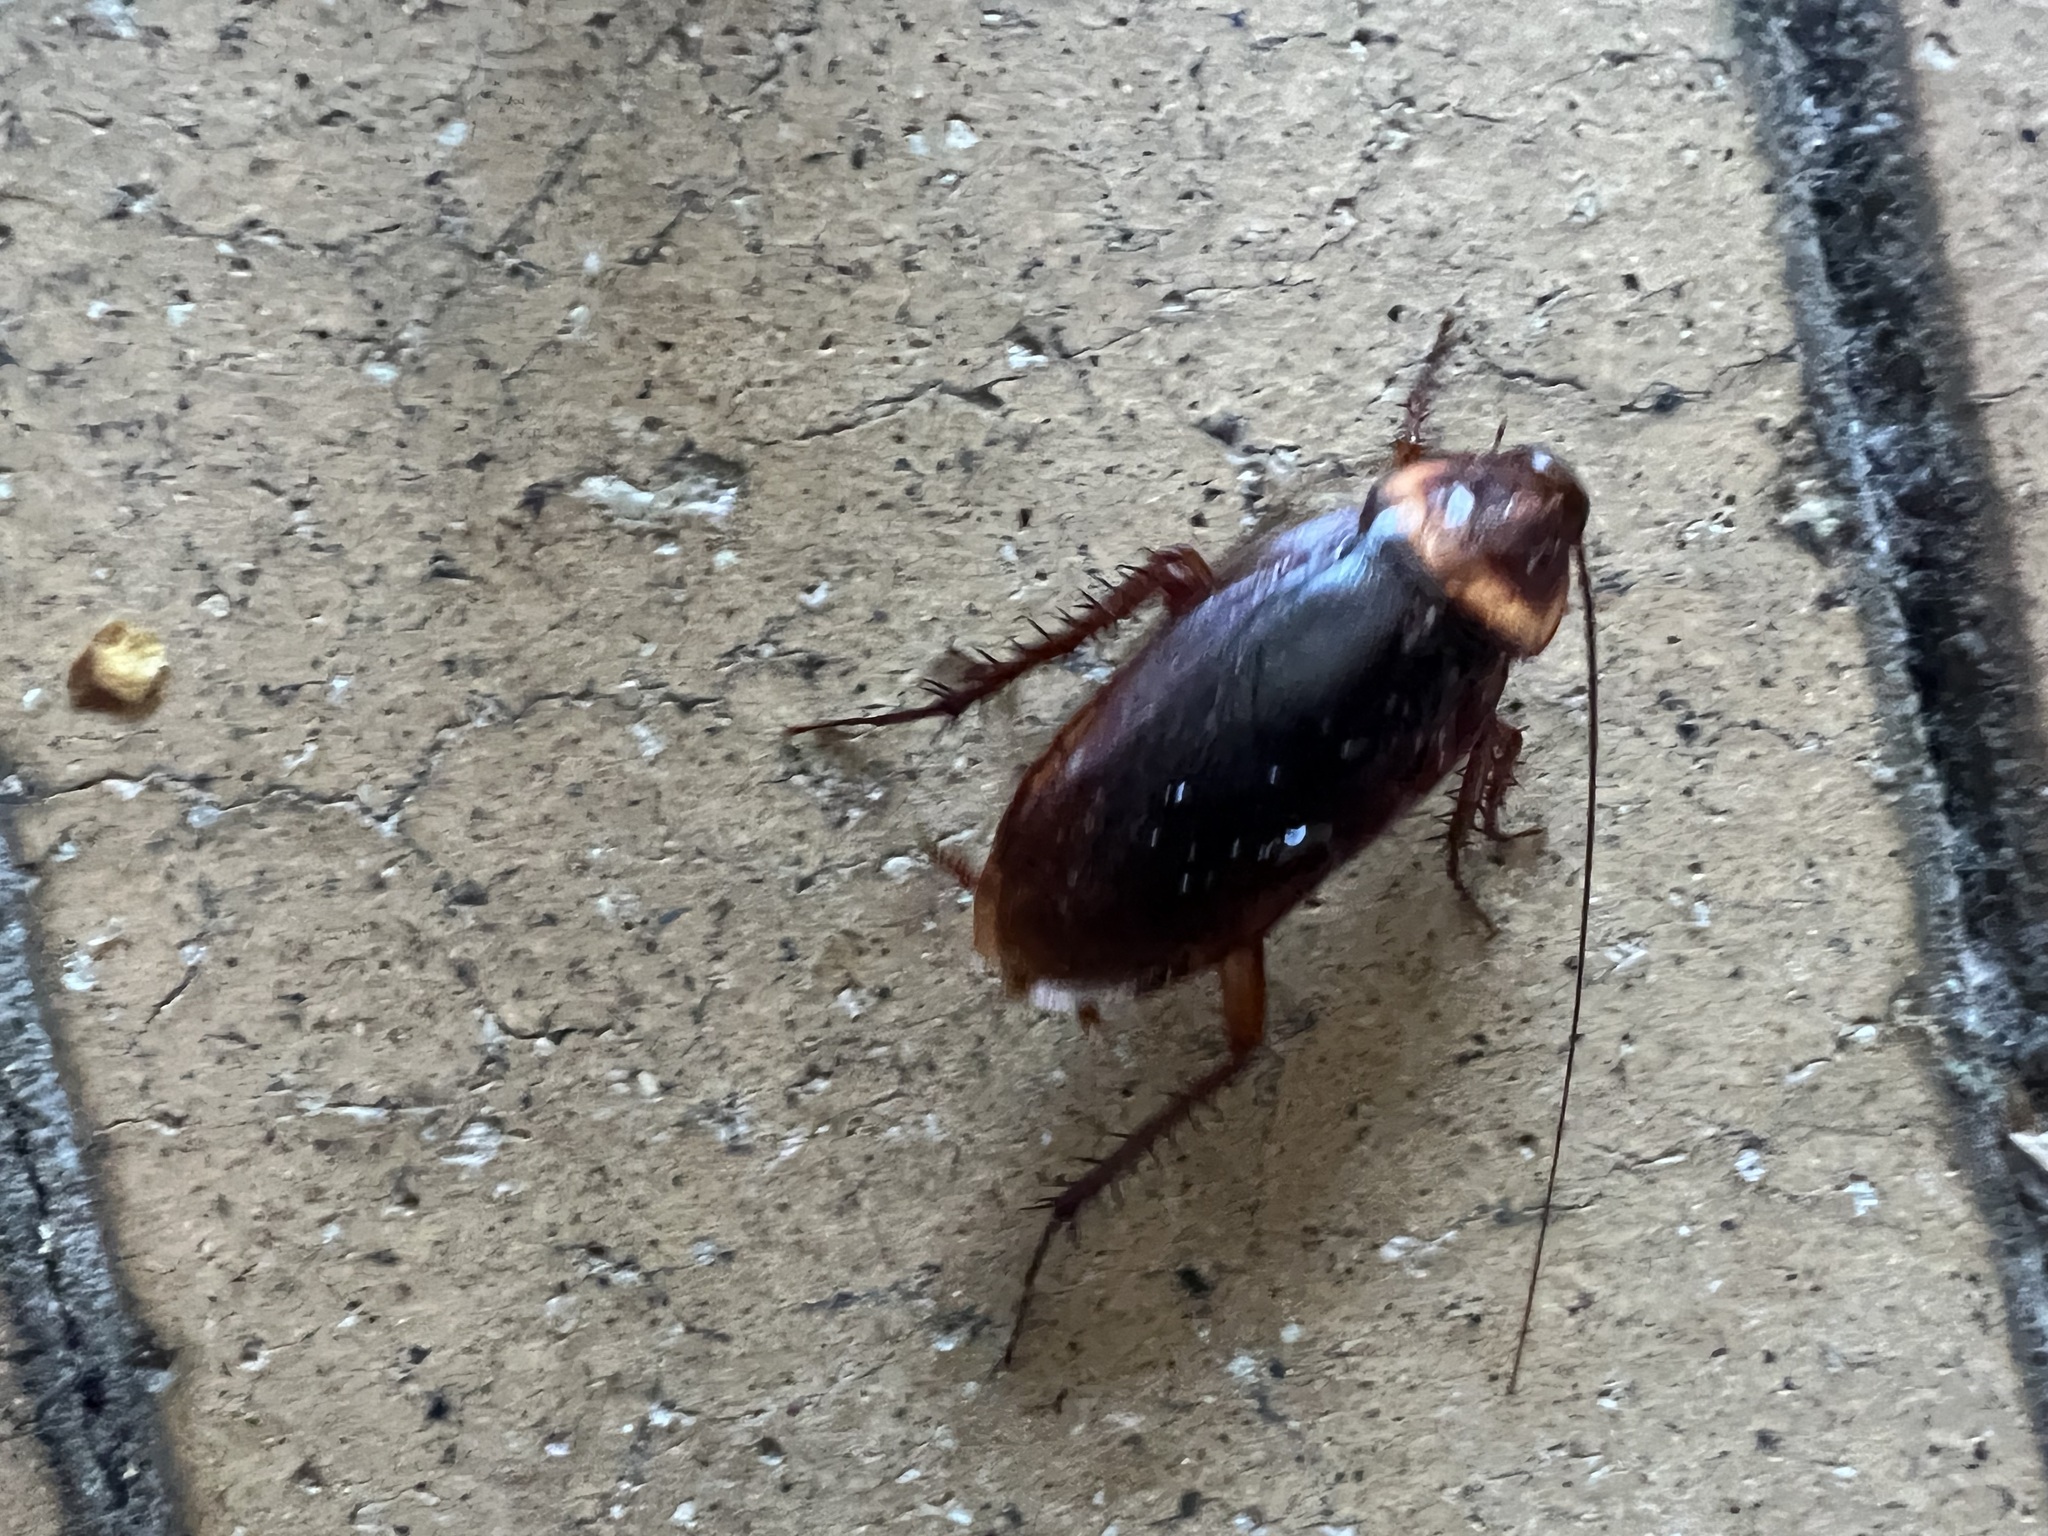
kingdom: Animalia
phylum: Arthropoda
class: Insecta
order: Blattodea
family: Blattidae
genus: Periplaneta
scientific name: Periplaneta americana
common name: American cockroach
